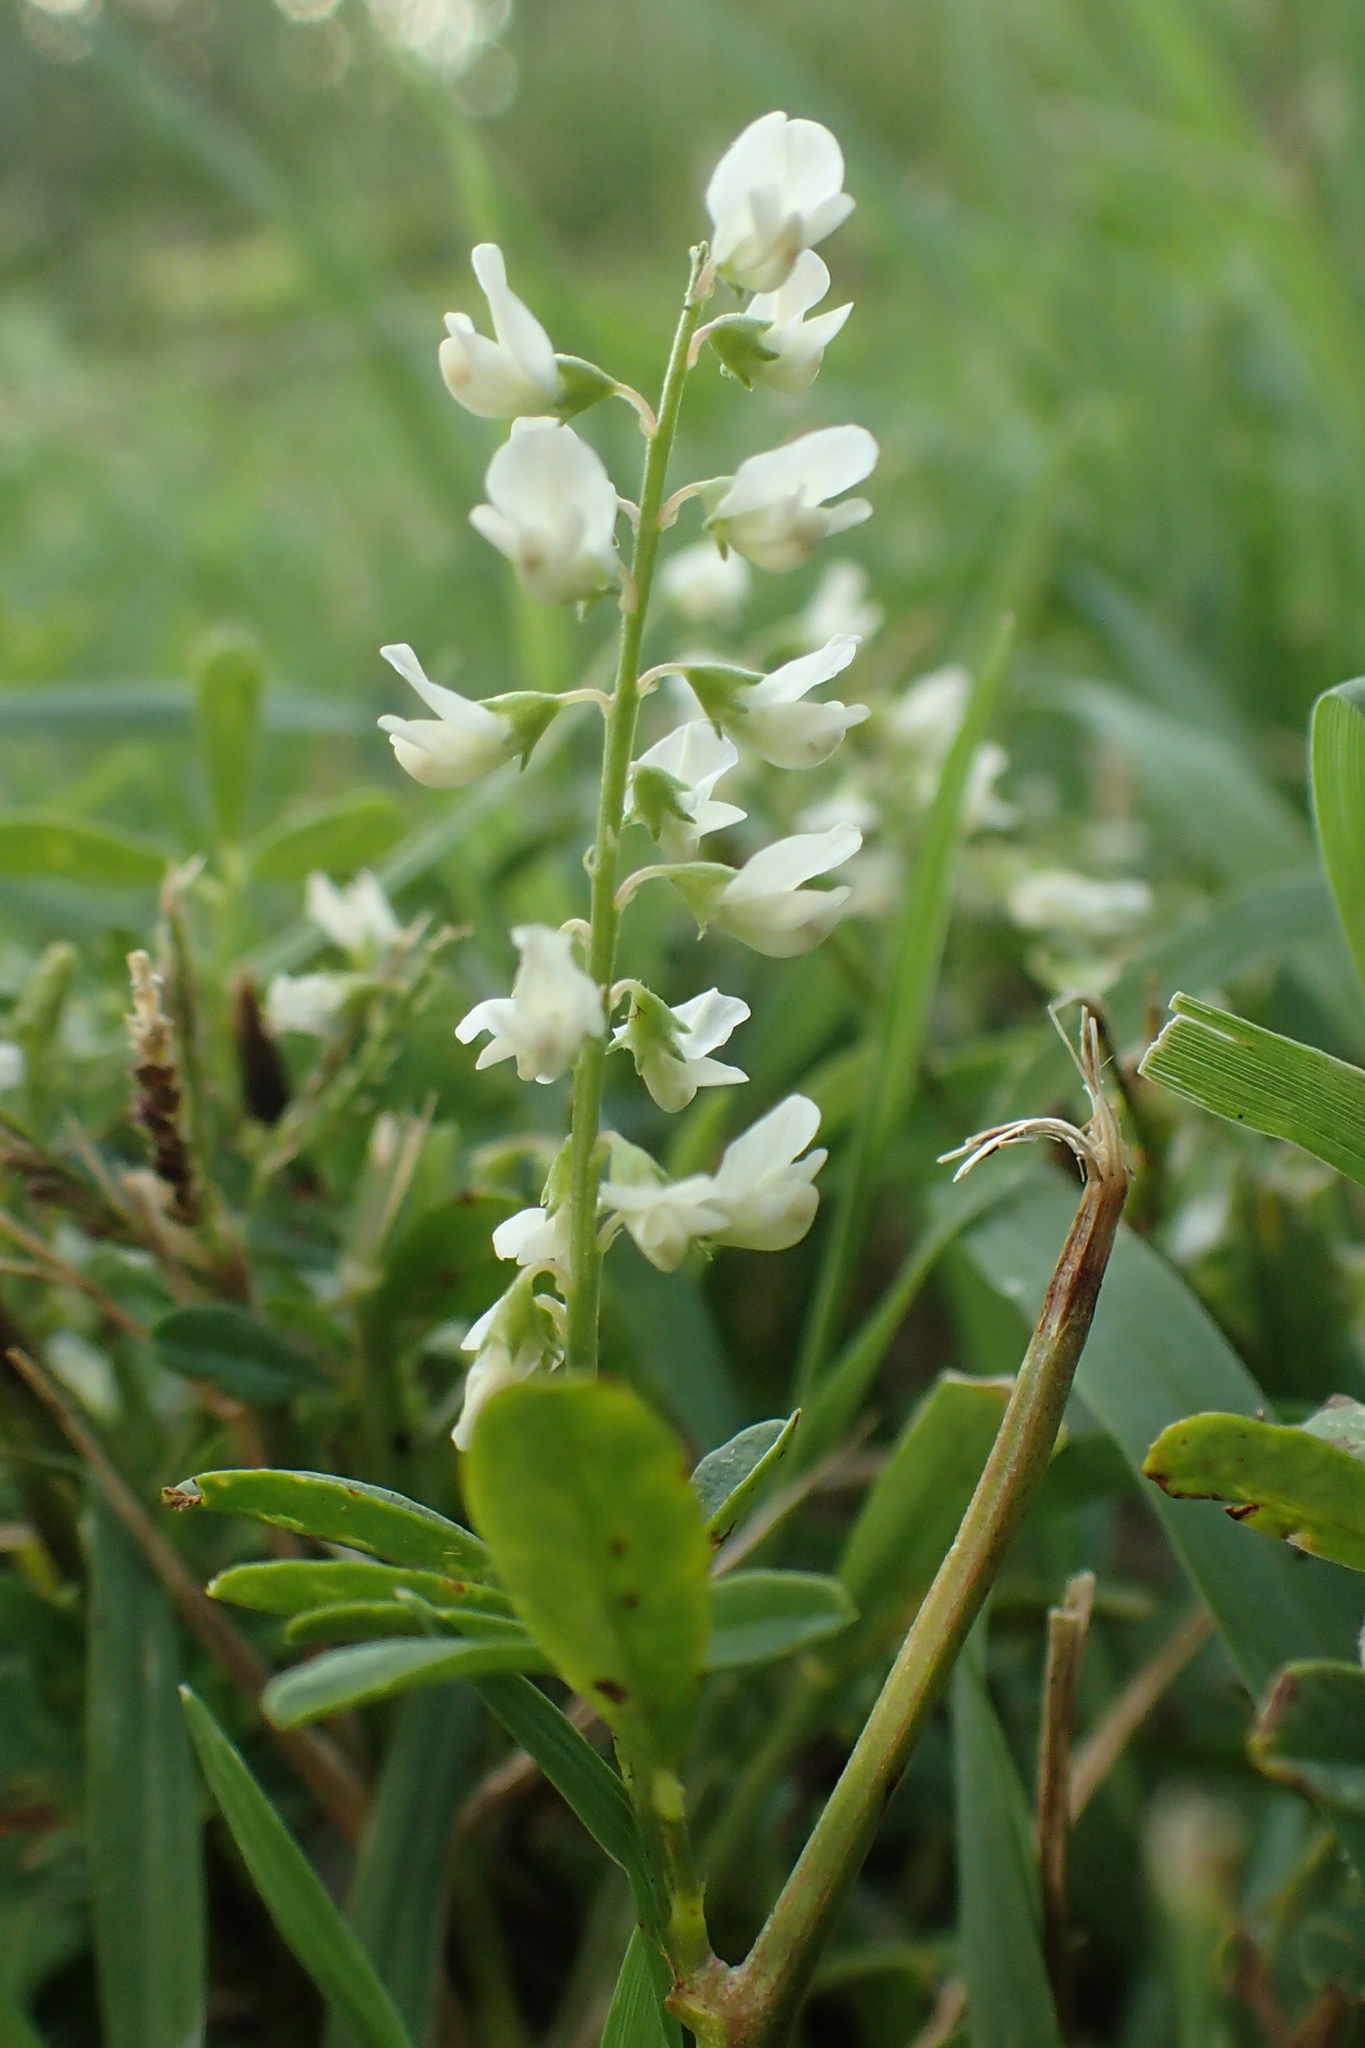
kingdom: Plantae
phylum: Tracheophyta
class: Magnoliopsida
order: Fabales
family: Fabaceae
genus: Melilotus
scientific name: Melilotus albus
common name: White melilot
